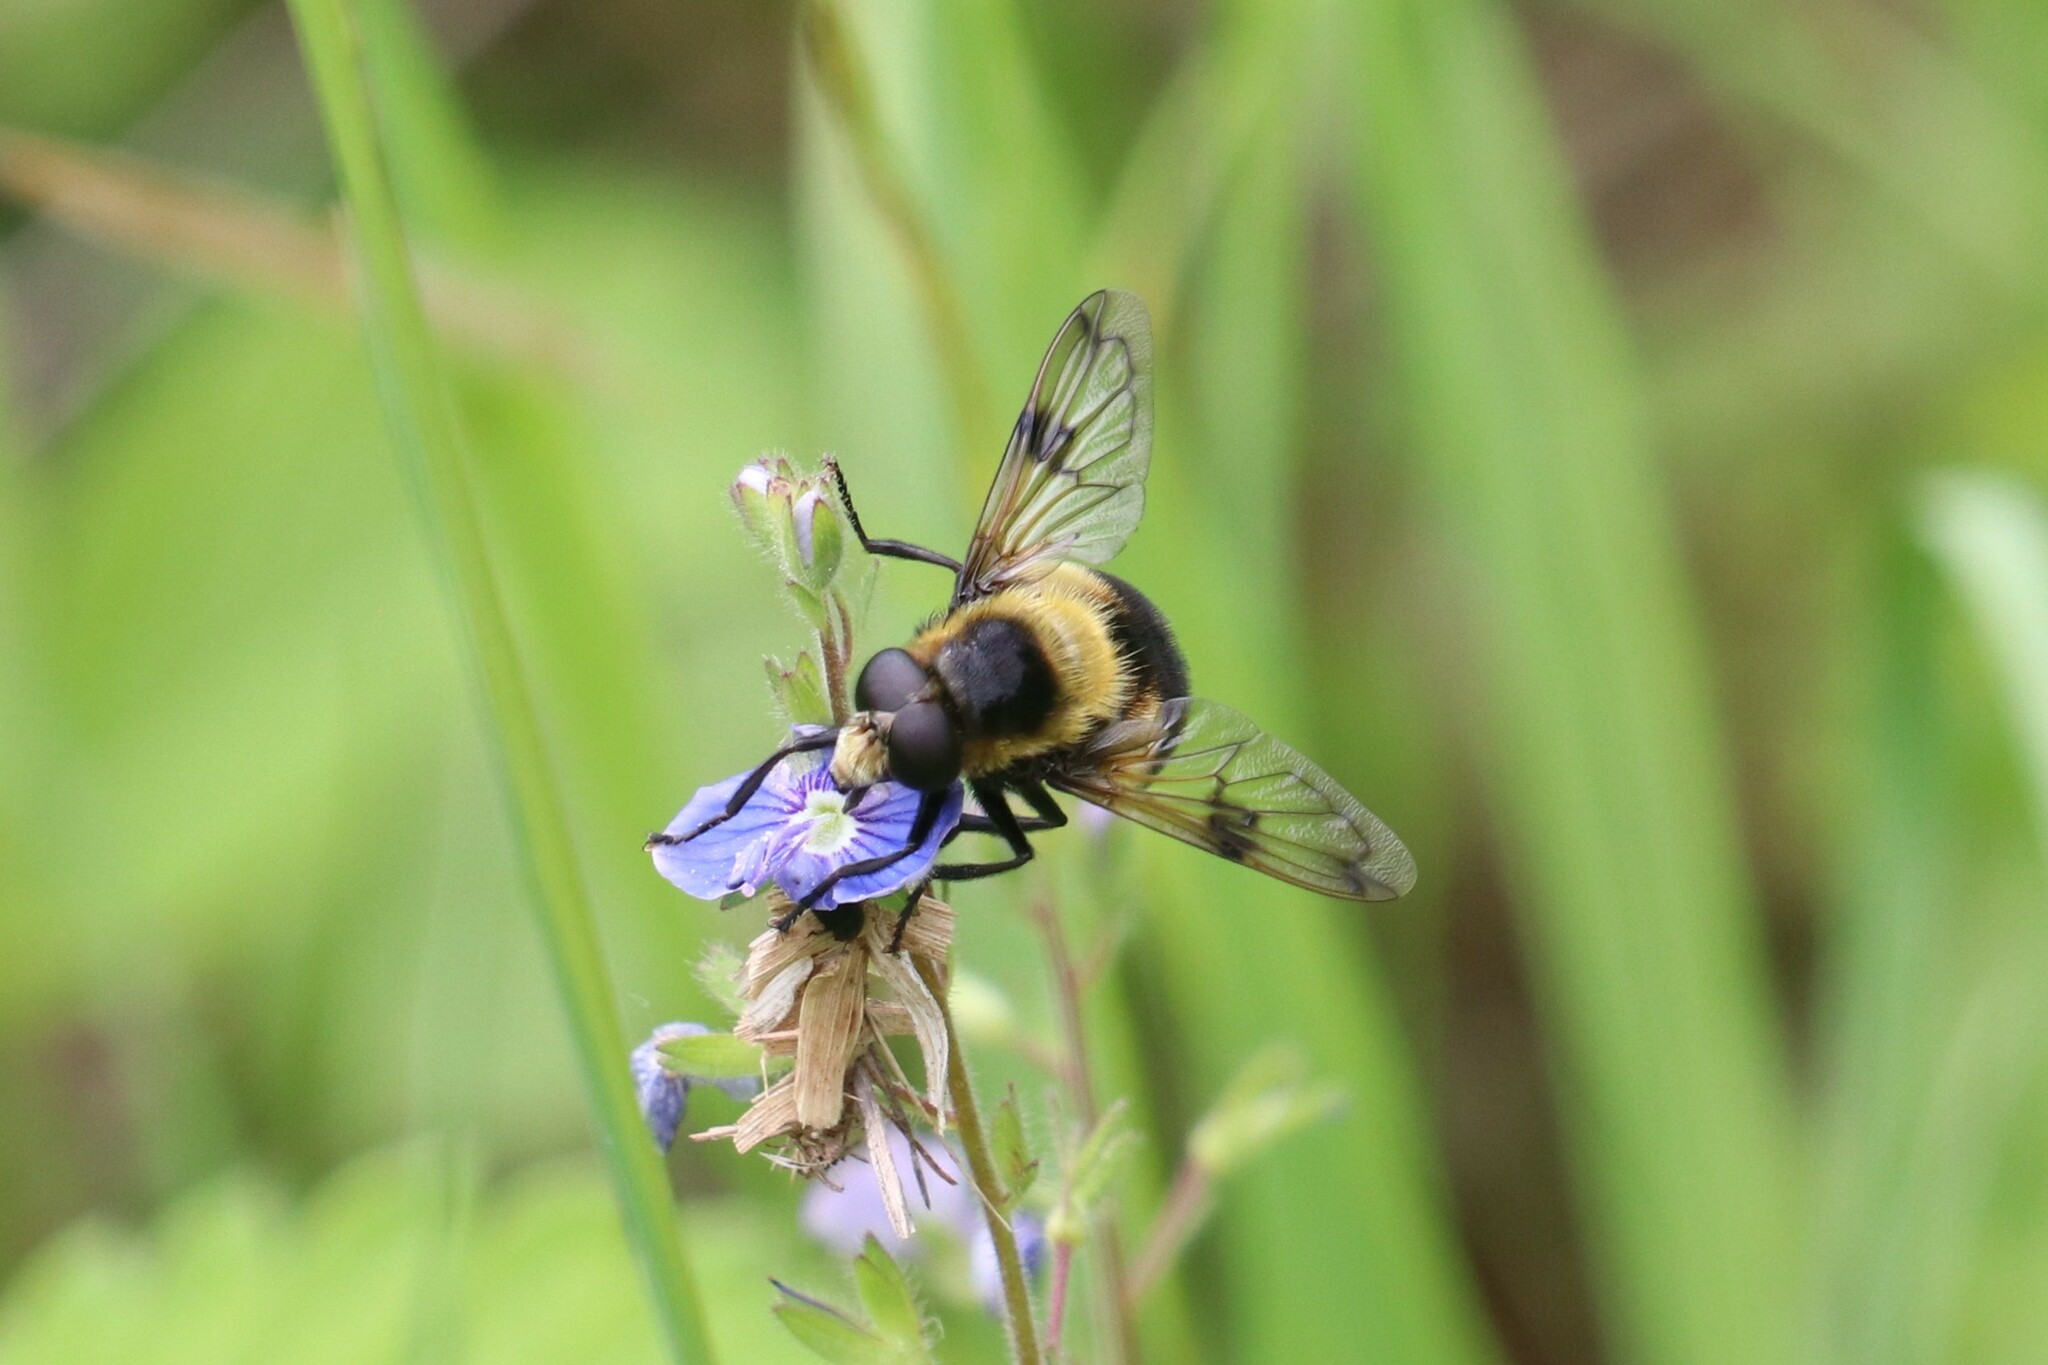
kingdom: Animalia
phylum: Arthropoda
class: Insecta
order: Diptera
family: Syrphidae
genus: Volucella
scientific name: Volucella bombylans
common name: Bumble bee hover fly
